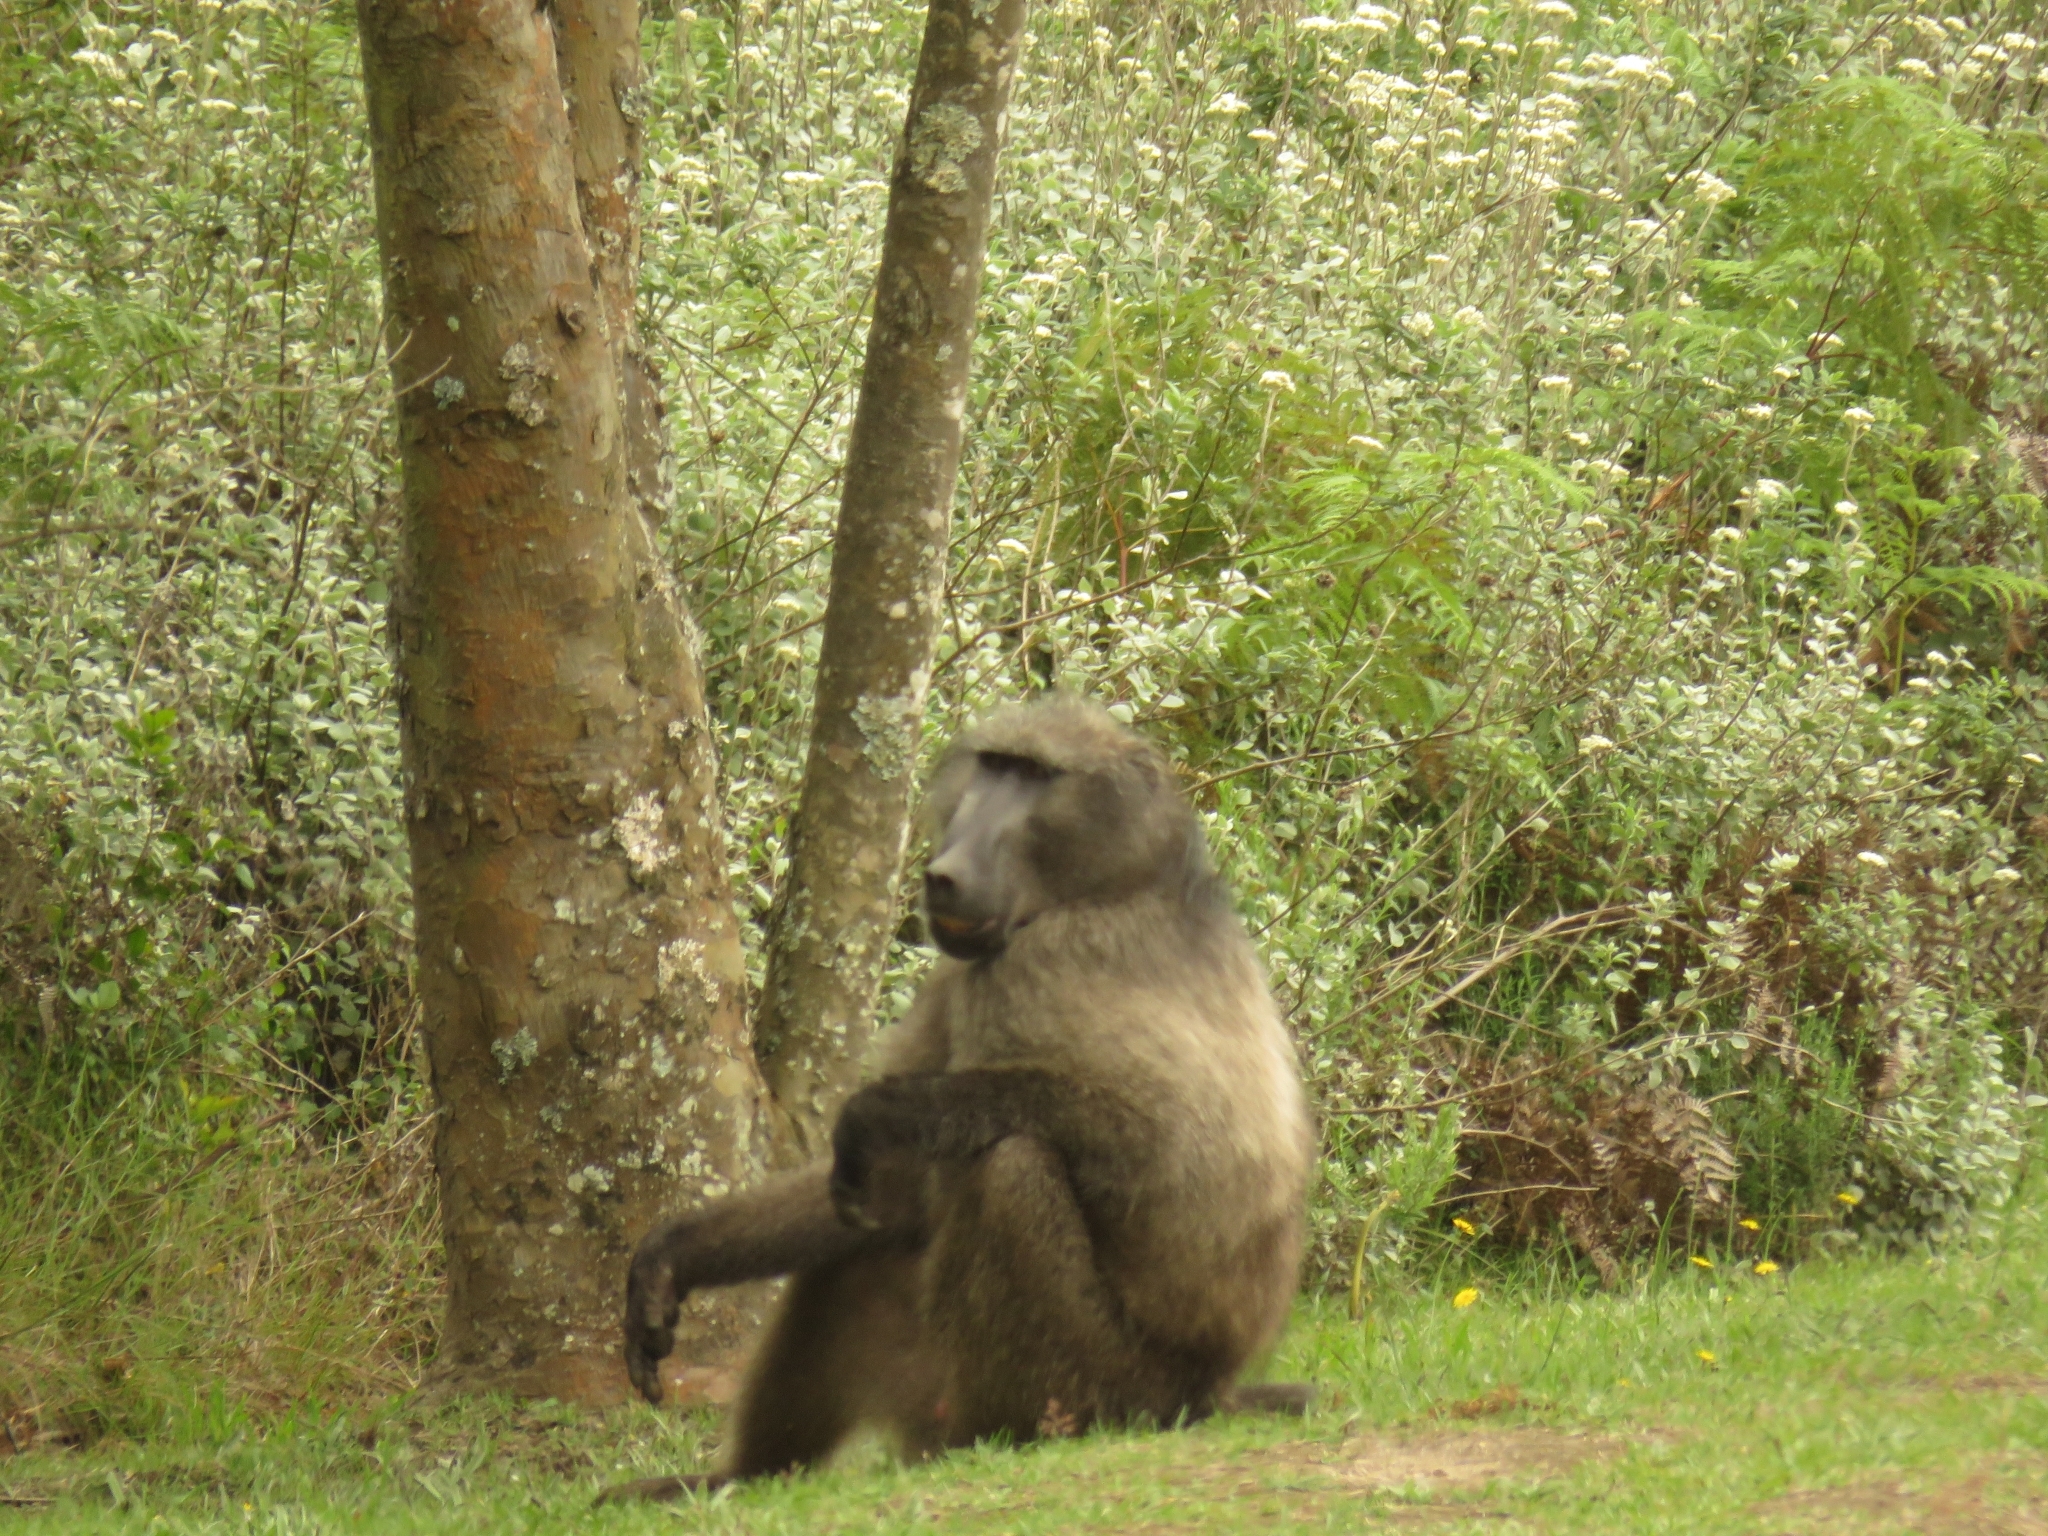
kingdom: Animalia
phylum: Chordata
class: Mammalia
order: Primates
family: Cercopithecidae
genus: Papio
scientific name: Papio ursinus
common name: Chacma baboon
